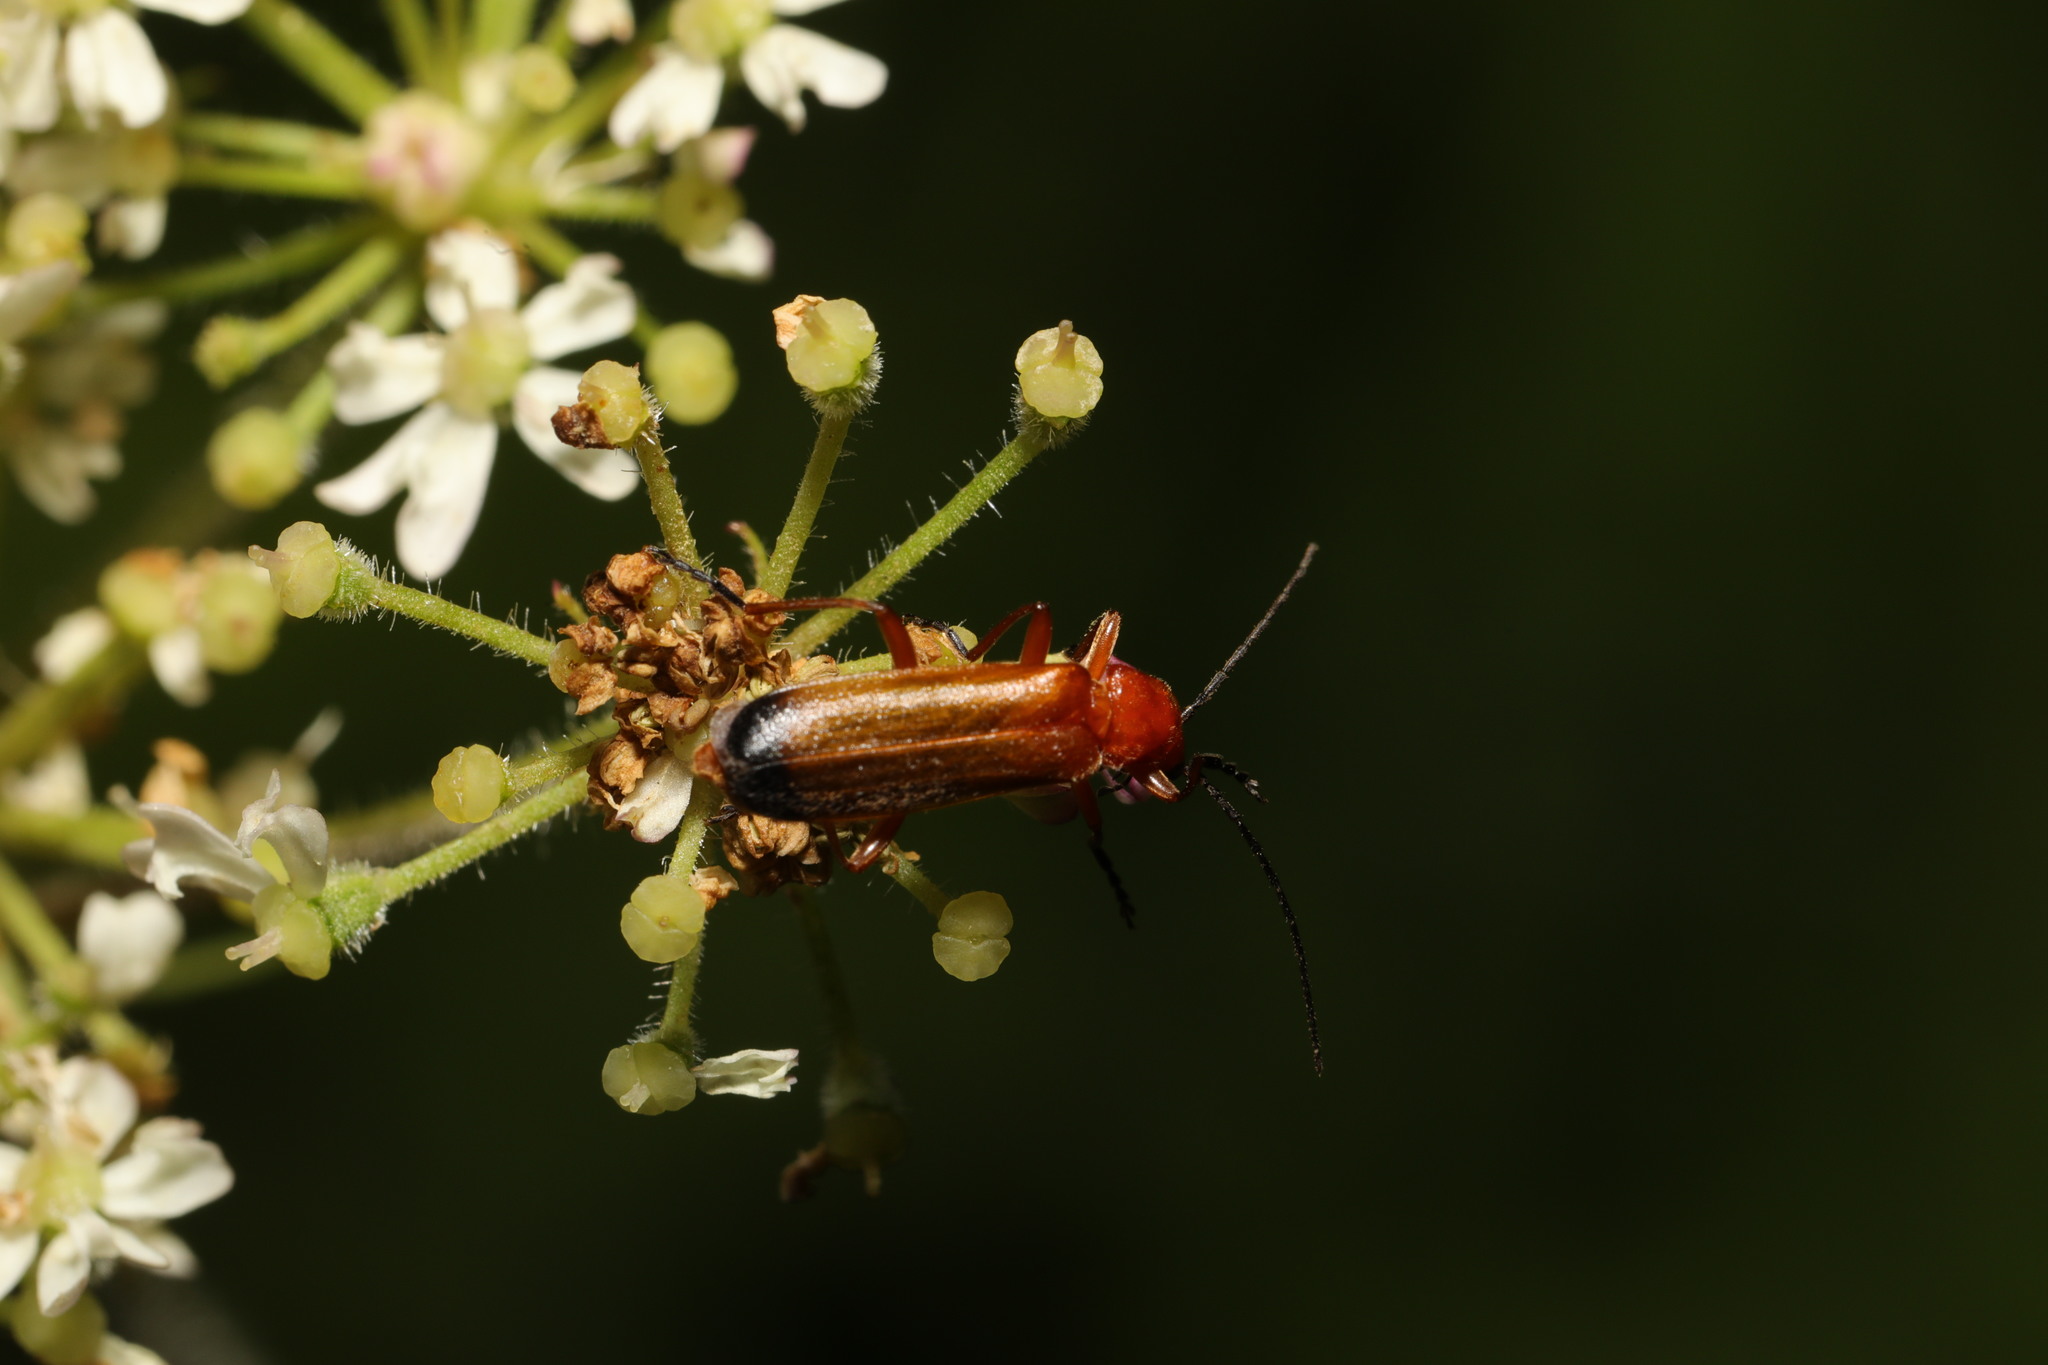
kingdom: Animalia
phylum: Arthropoda
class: Insecta
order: Coleoptera
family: Cantharidae
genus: Rhagonycha
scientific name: Rhagonycha fulva
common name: Common red soldier beetle
